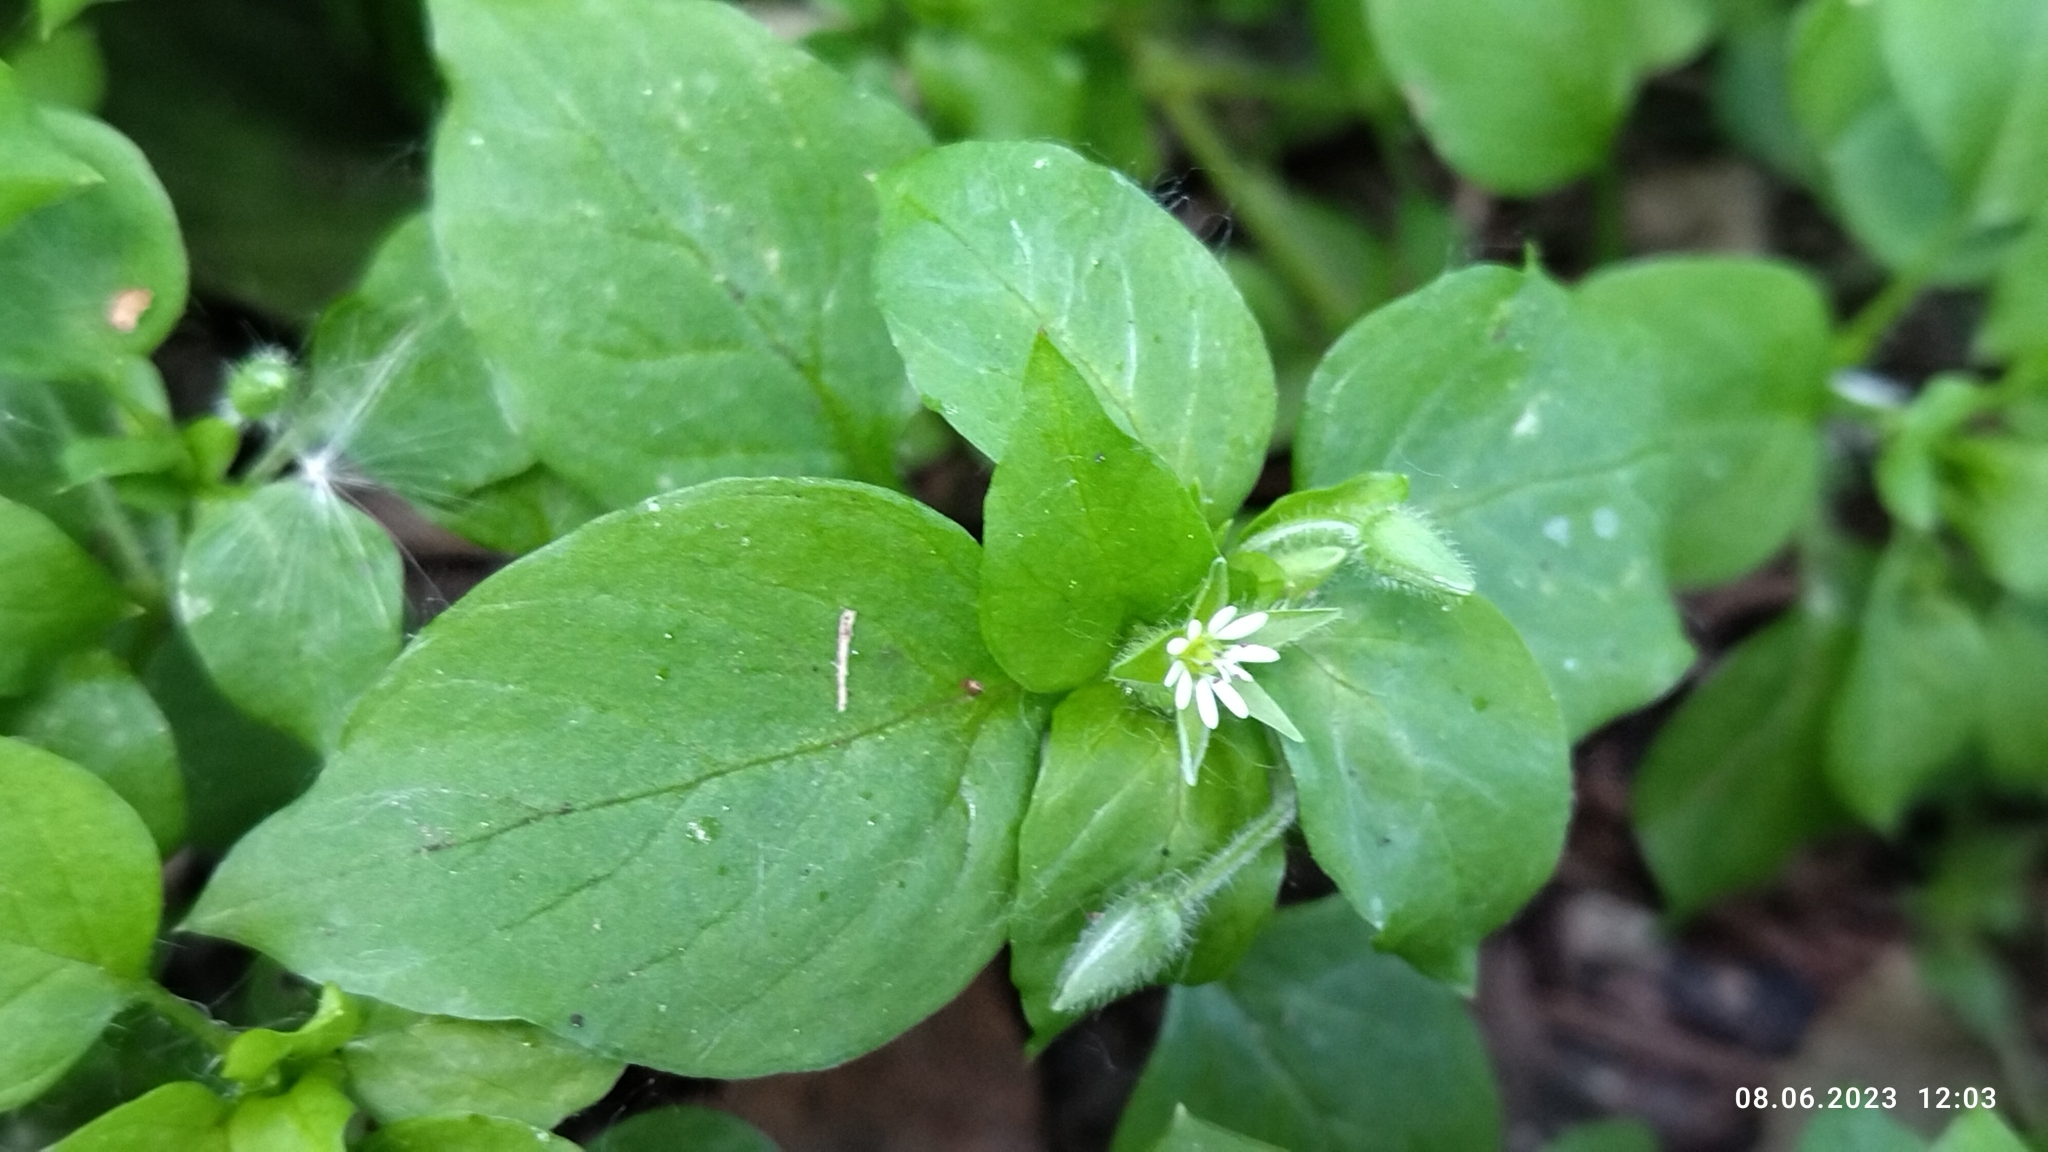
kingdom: Plantae
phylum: Tracheophyta
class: Magnoliopsida
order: Caryophyllales
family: Caryophyllaceae
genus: Stellaria
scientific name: Stellaria media
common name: Common chickweed
